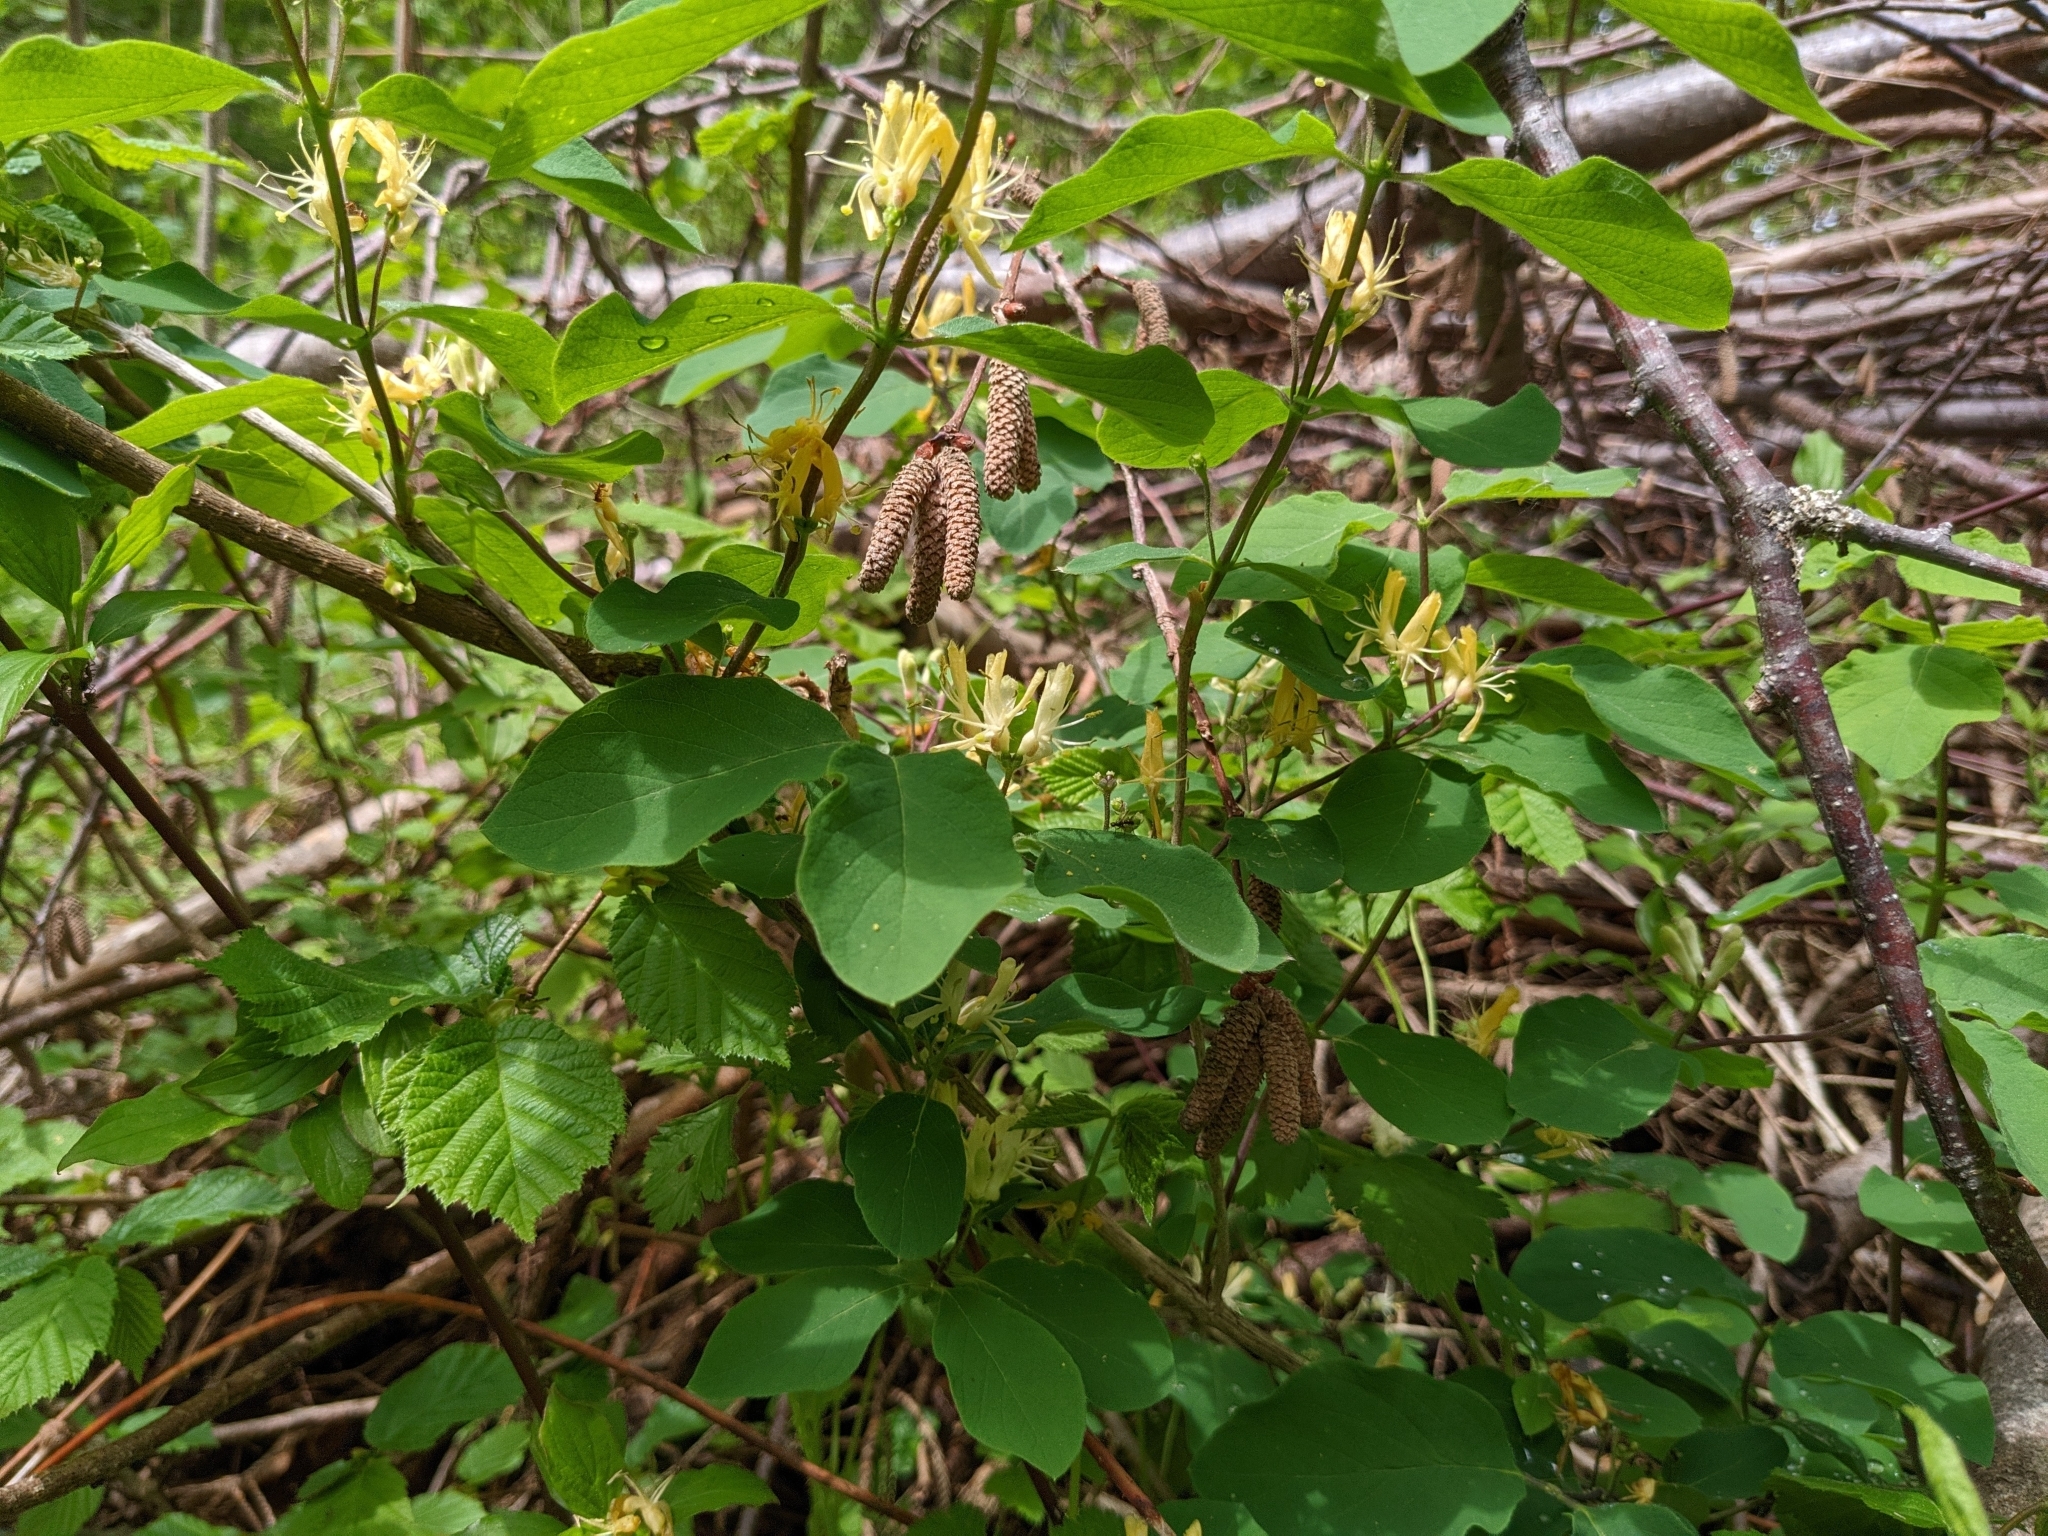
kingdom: Plantae
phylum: Tracheophyta
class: Magnoliopsida
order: Dipsacales
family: Caprifoliaceae
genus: Lonicera
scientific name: Lonicera xylosteum
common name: Fly honeysuckle
